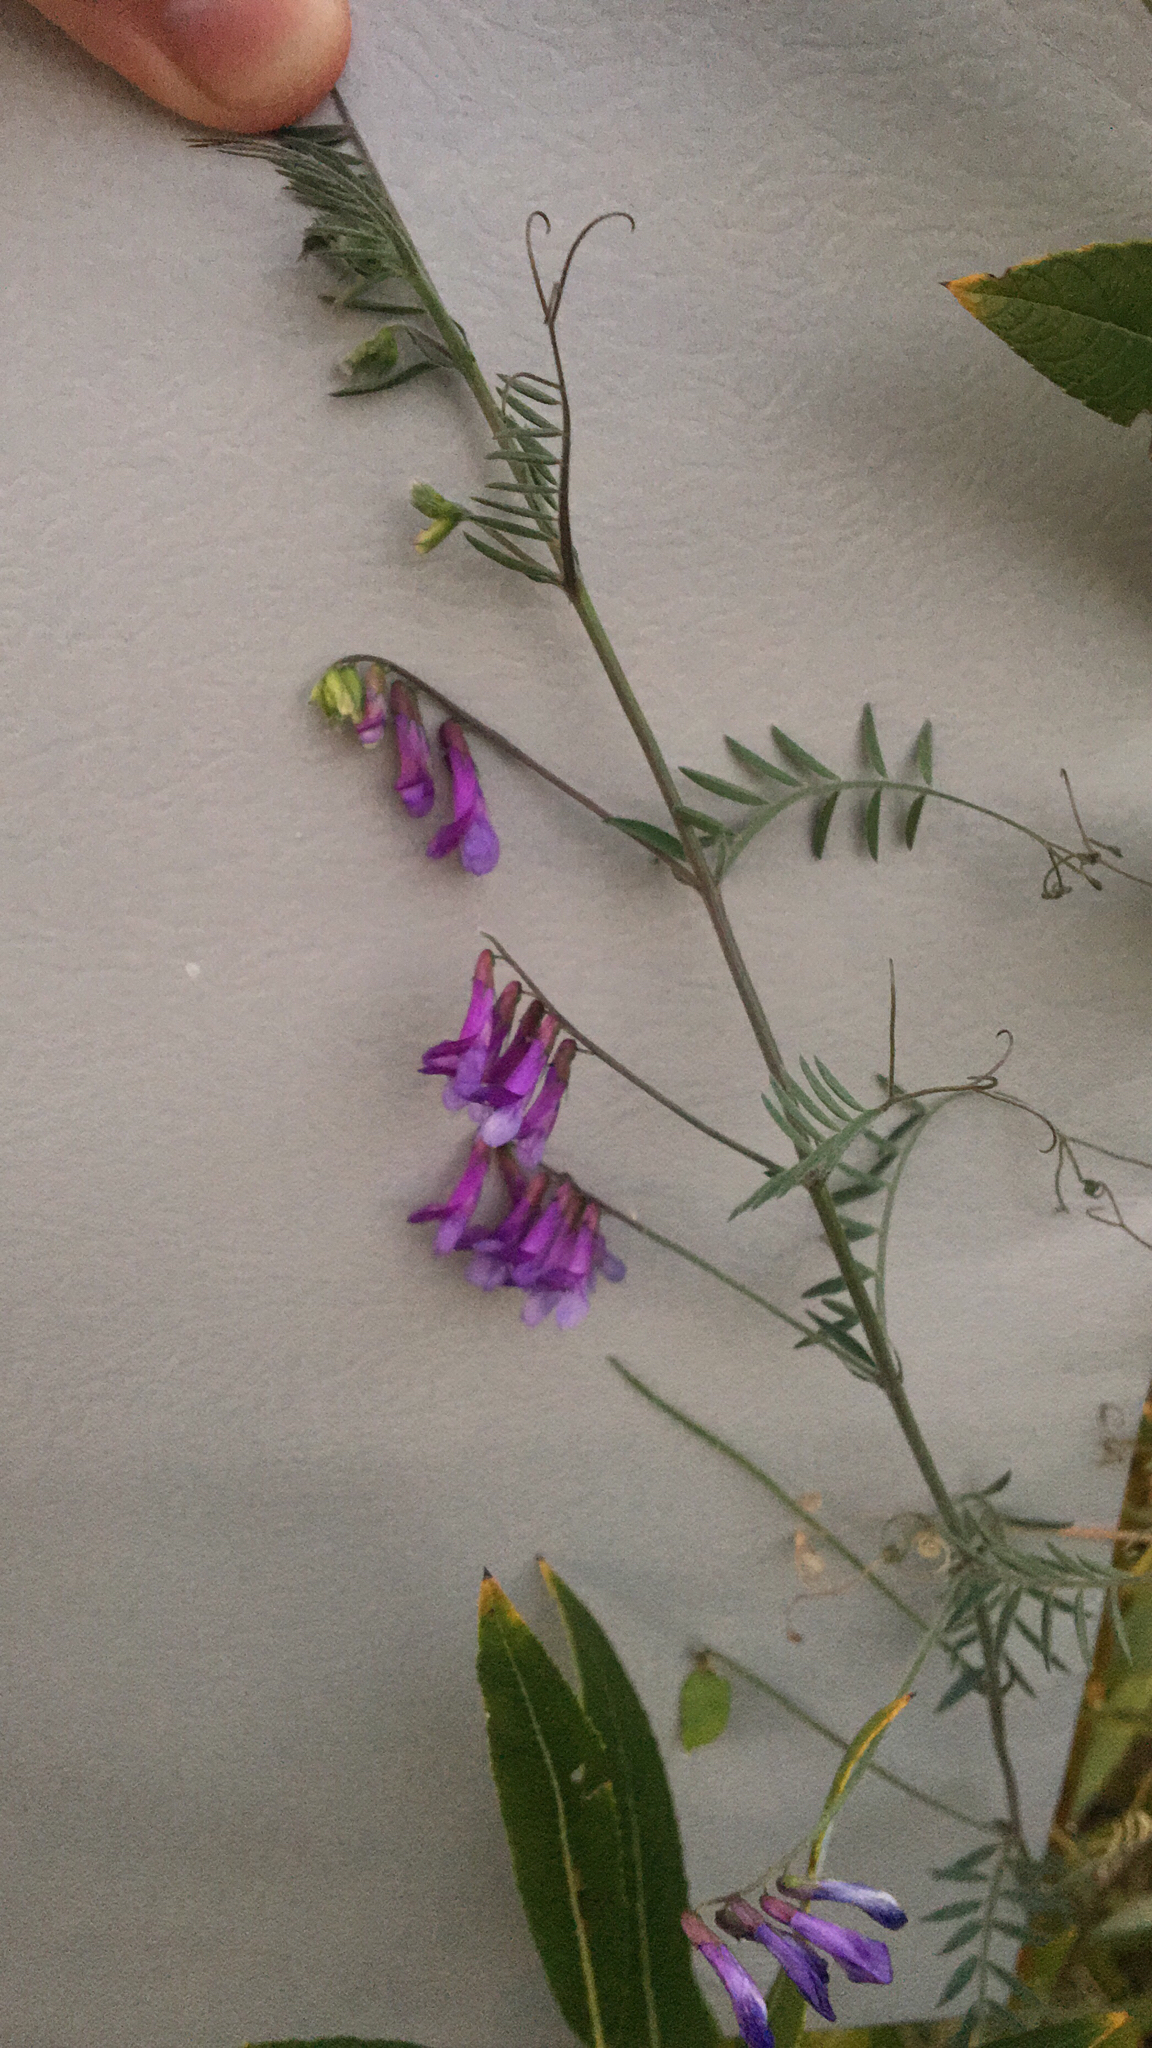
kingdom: Plantae
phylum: Tracheophyta
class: Magnoliopsida
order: Fabales
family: Fabaceae
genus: Vicia
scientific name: Vicia villosa
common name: Fodder vetch
